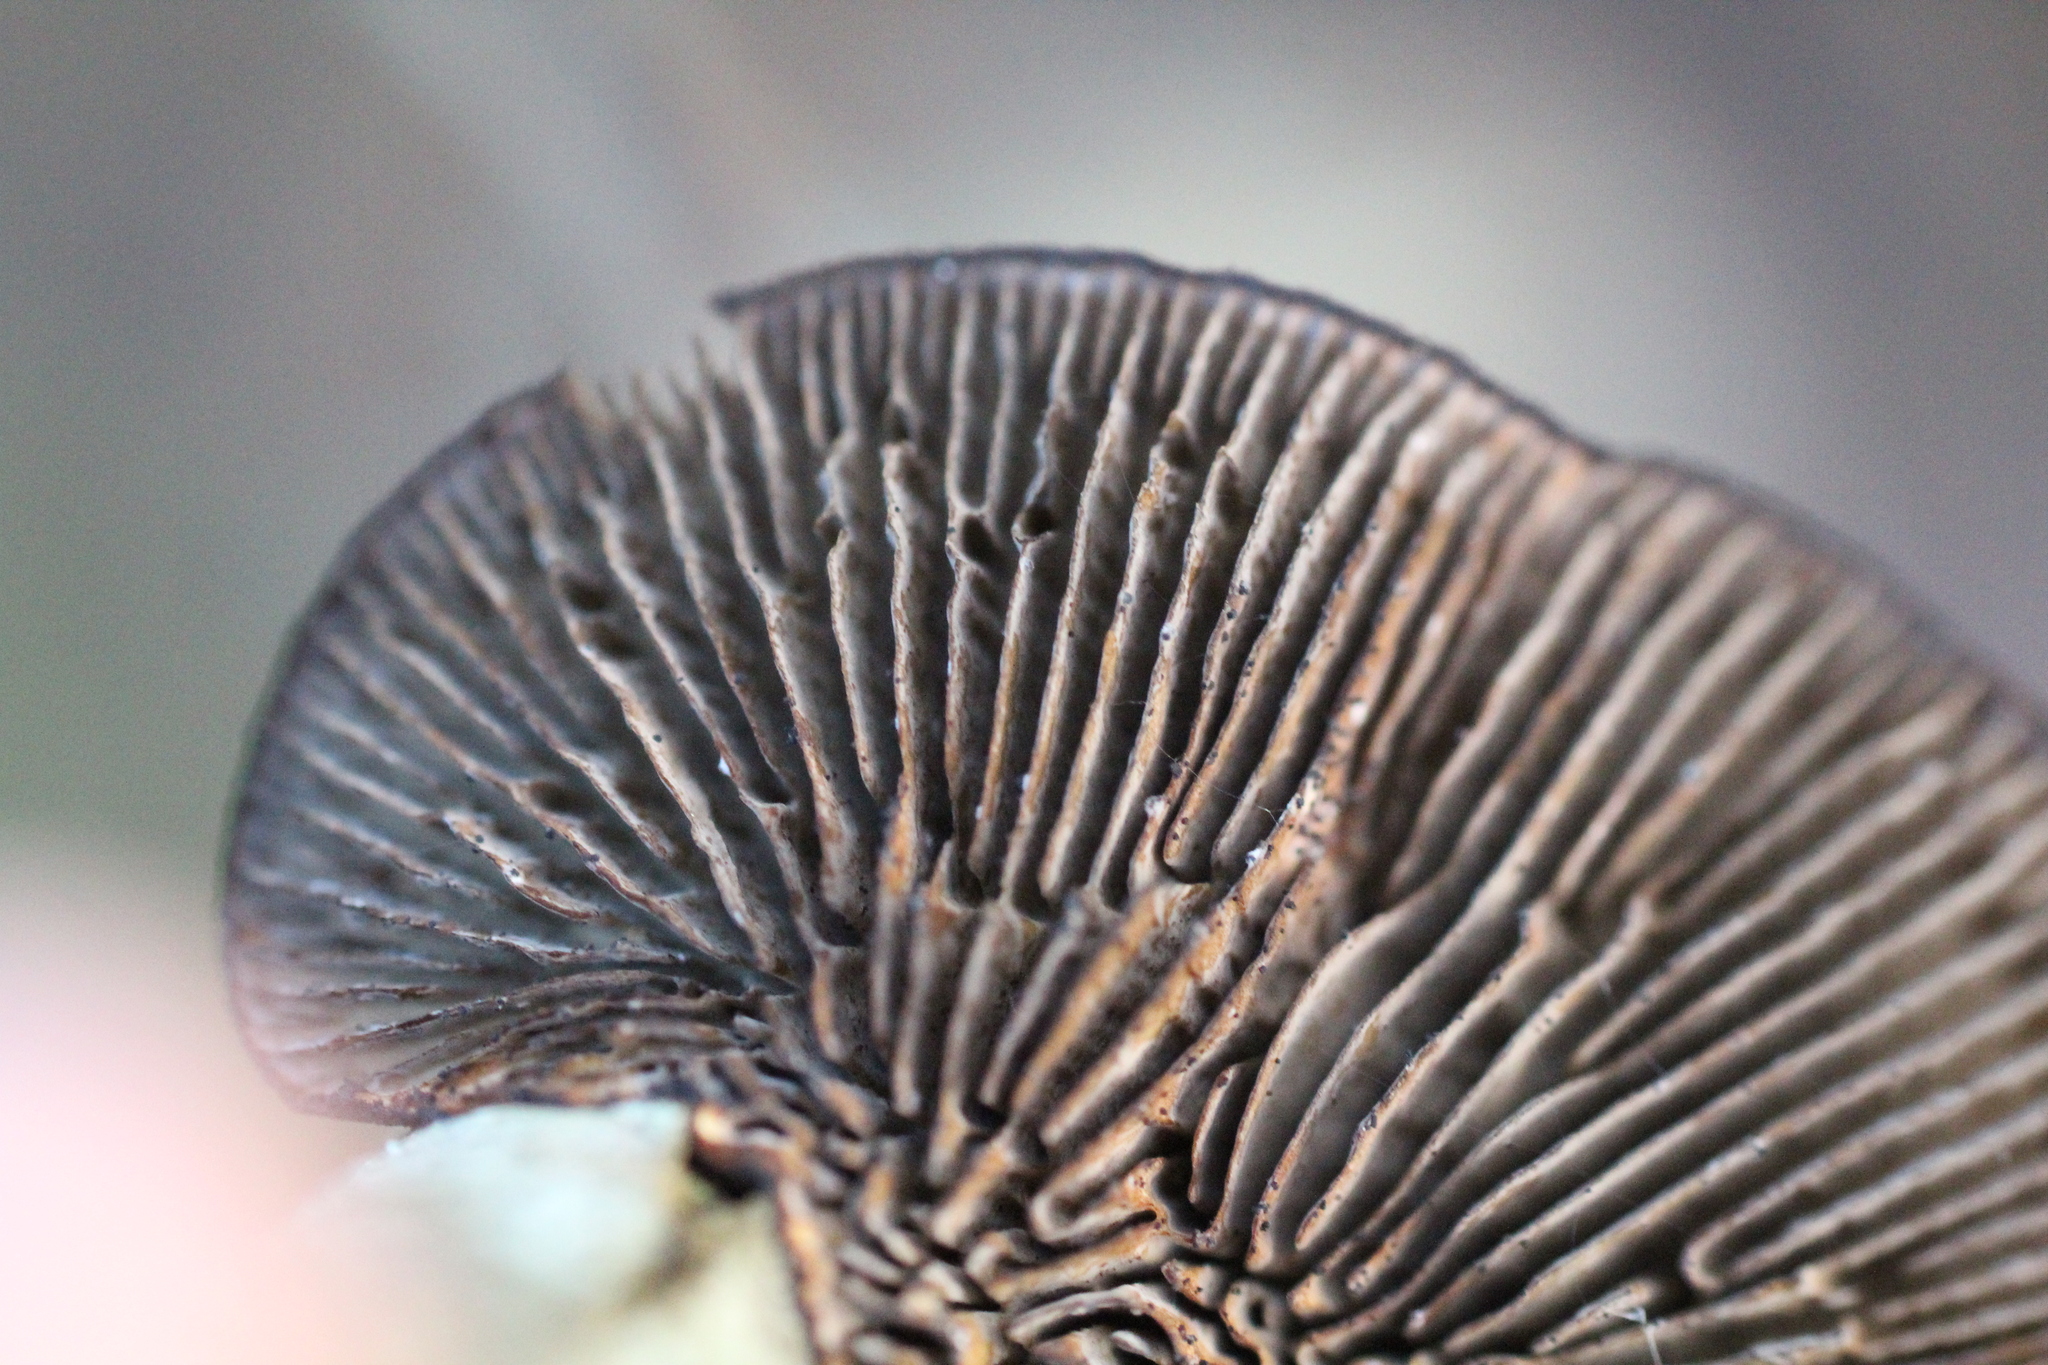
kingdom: Fungi
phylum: Basidiomycota
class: Agaricomycetes
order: Polyporales
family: Polyporaceae
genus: Daedaleopsis
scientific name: Daedaleopsis tricolor
